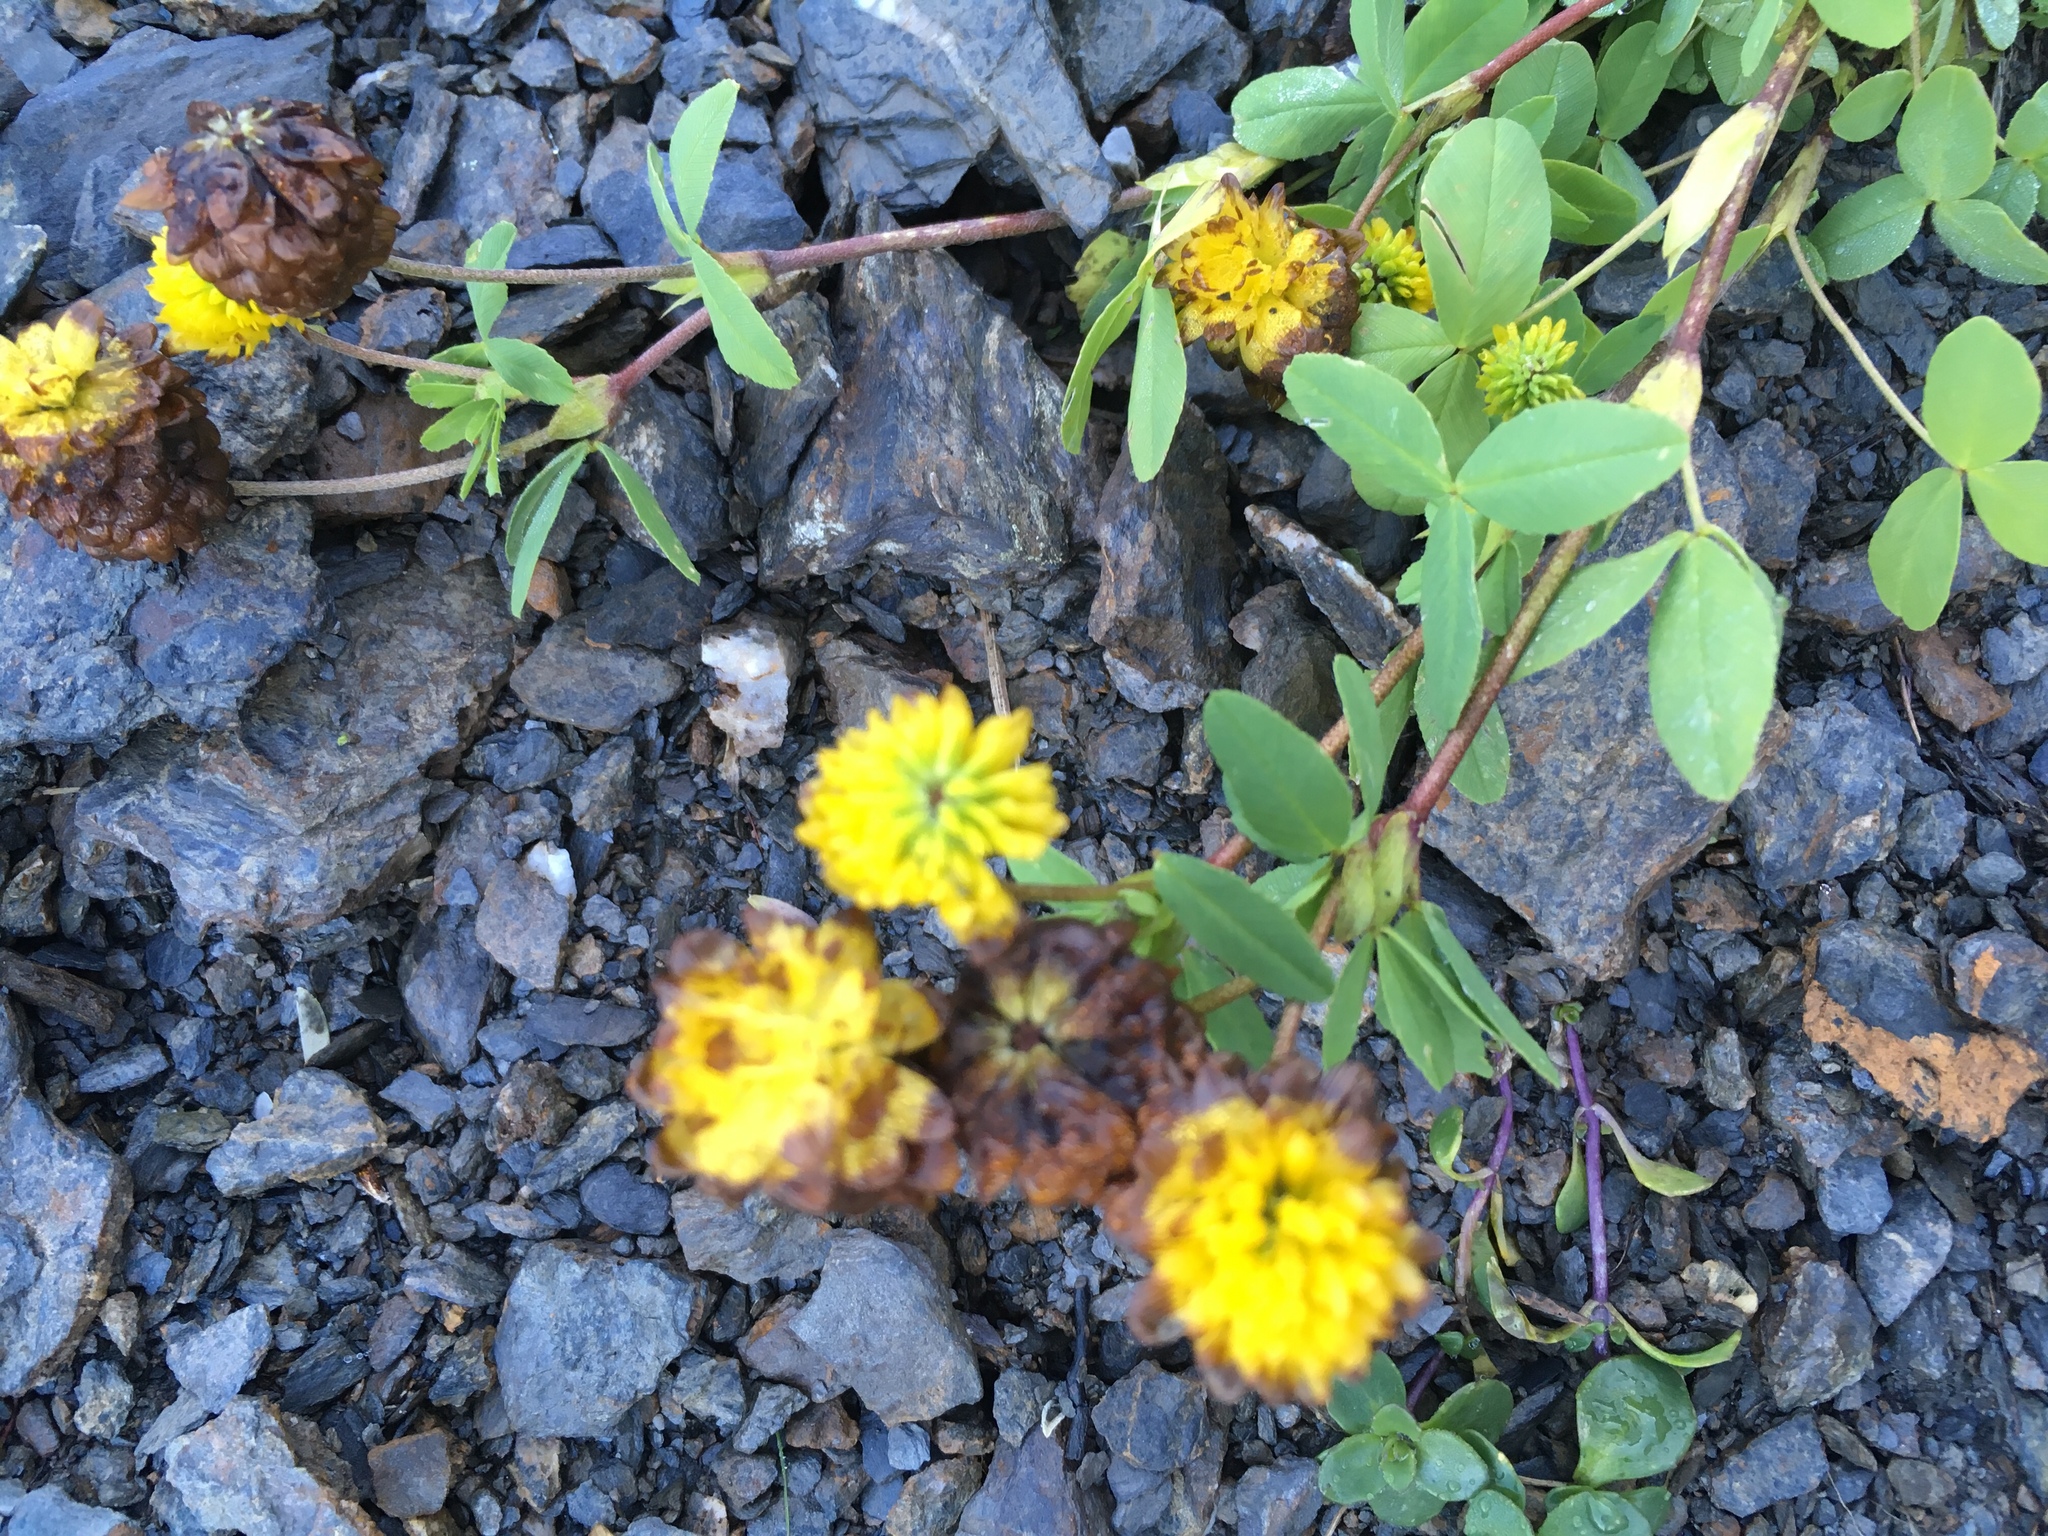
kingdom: Plantae
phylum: Tracheophyta
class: Magnoliopsida
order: Fabales
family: Fabaceae
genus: Trifolium
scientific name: Trifolium badium
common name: Brown clover
